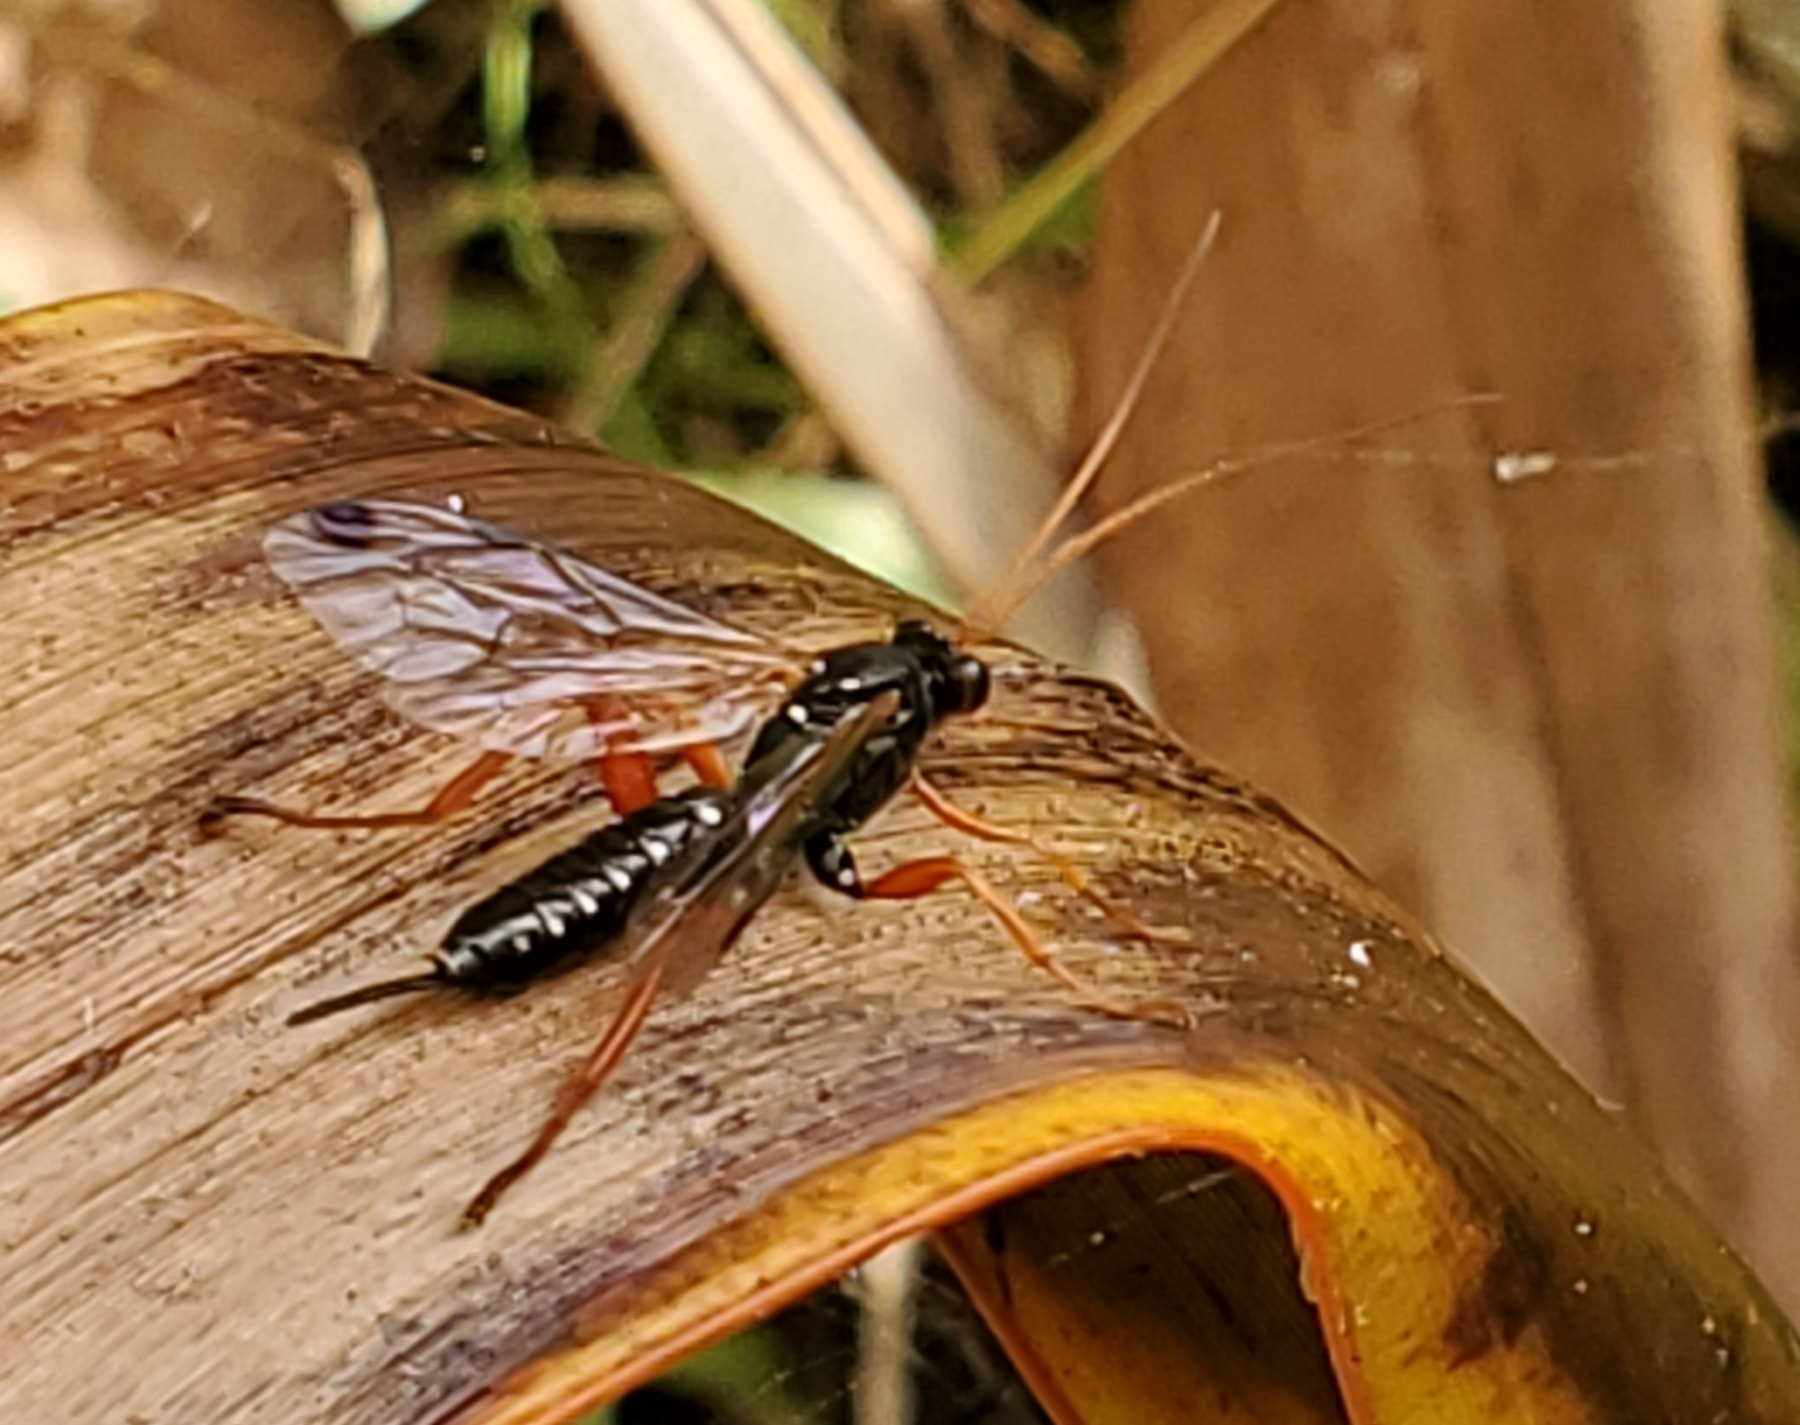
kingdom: Animalia
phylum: Arthropoda
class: Insecta
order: Hymenoptera
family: Ichneumonidae
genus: Echthromorpha
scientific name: Echthromorpha intricatoria
